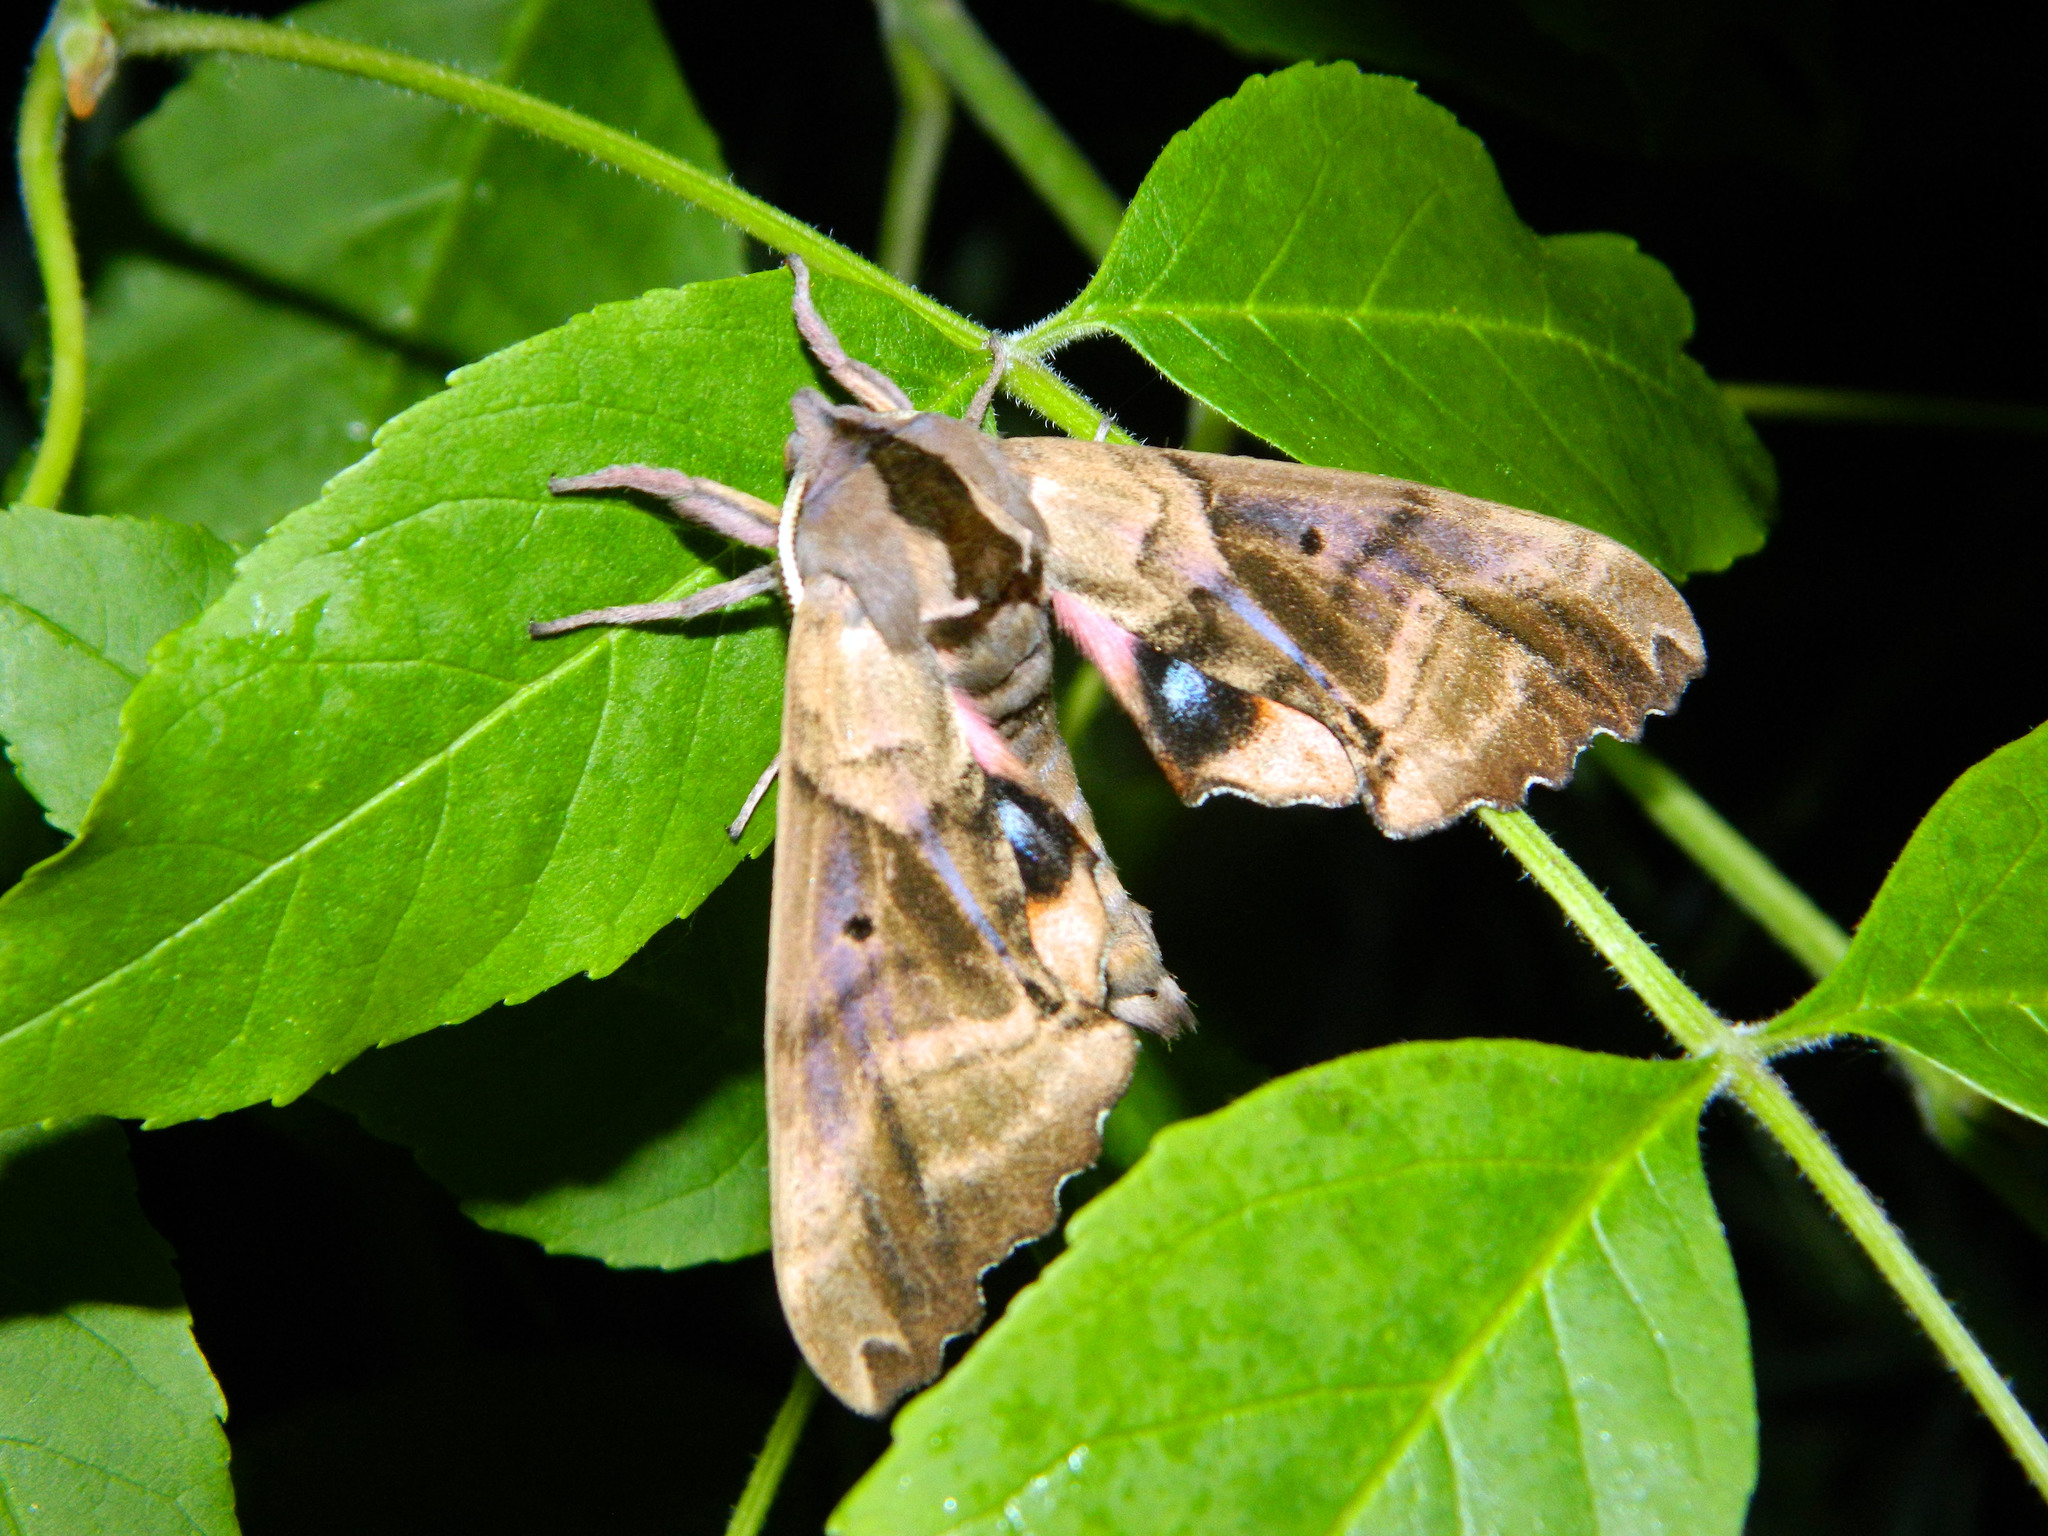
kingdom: Animalia
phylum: Arthropoda
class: Insecta
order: Lepidoptera
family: Sphingidae
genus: Paonias
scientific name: Paonias excaecata
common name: Blind-eyed sphinx
